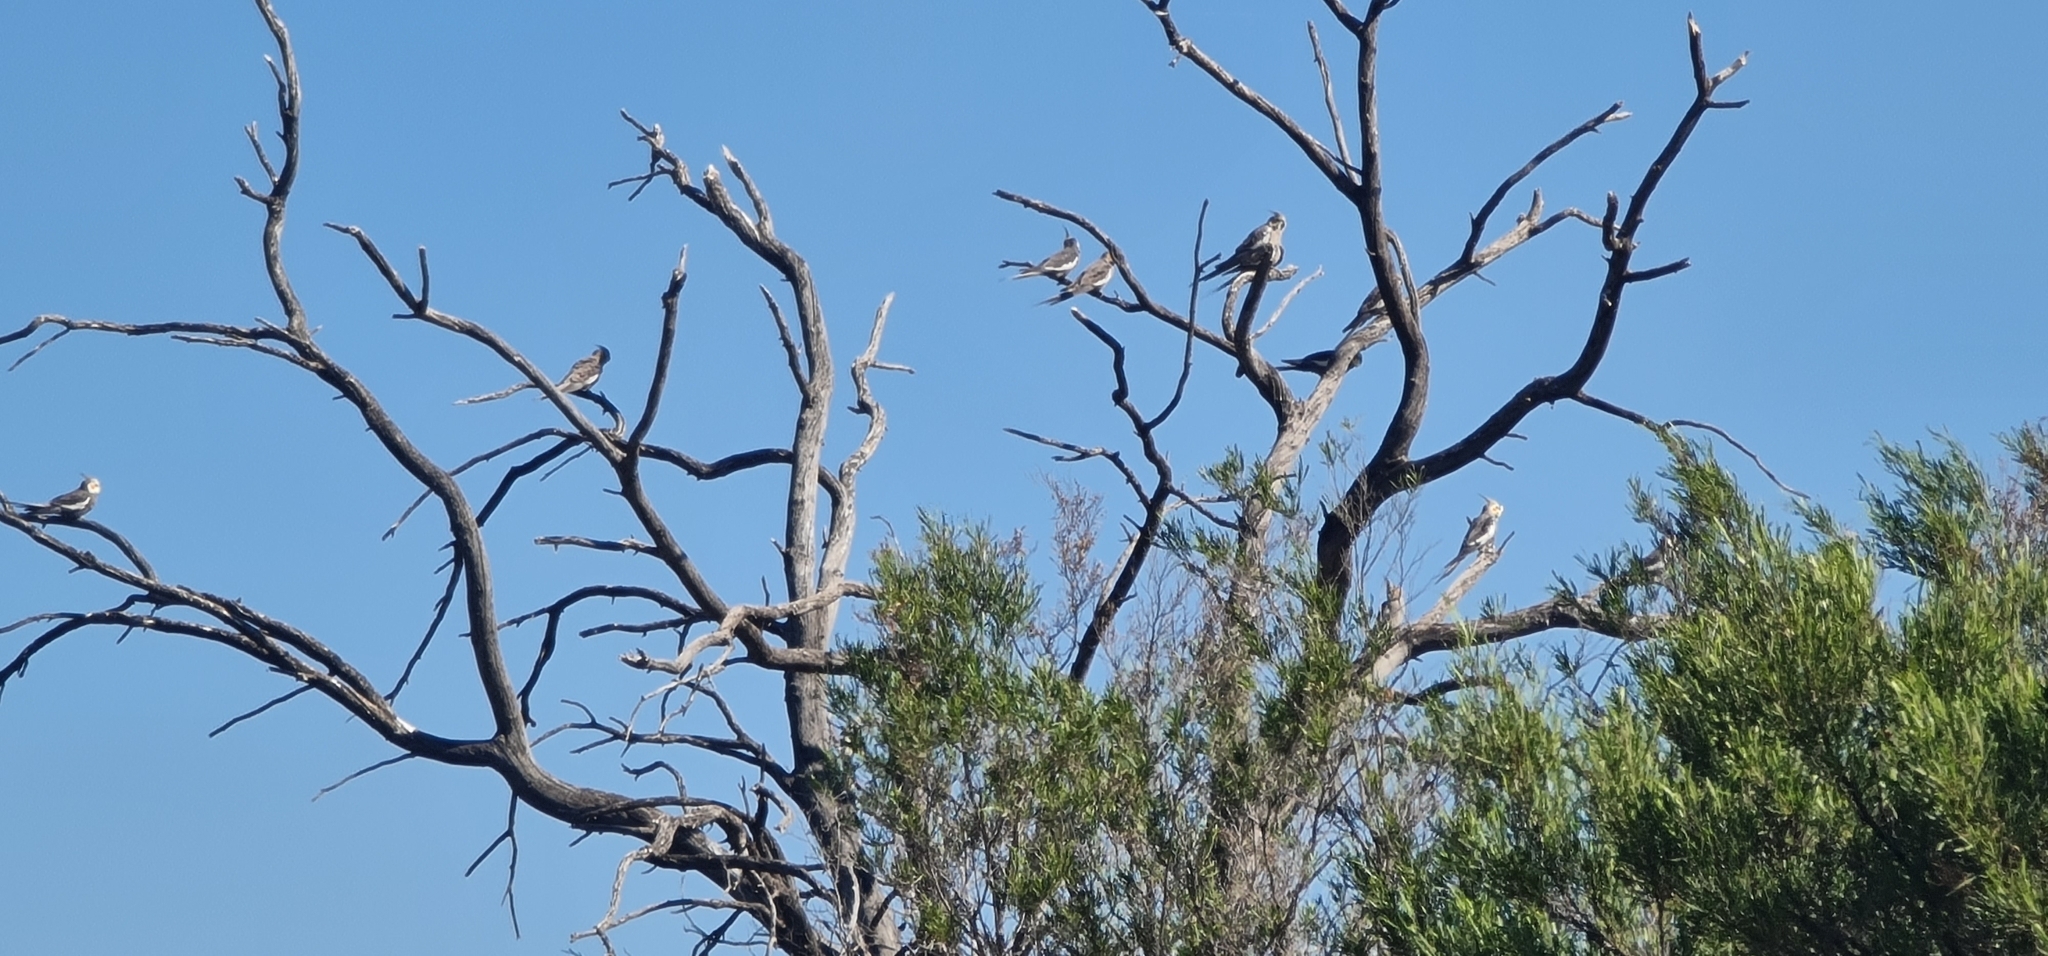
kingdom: Animalia
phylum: Chordata
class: Aves
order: Psittaciformes
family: Psittacidae
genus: Nymphicus
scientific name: Nymphicus hollandicus
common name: Cockatiel
